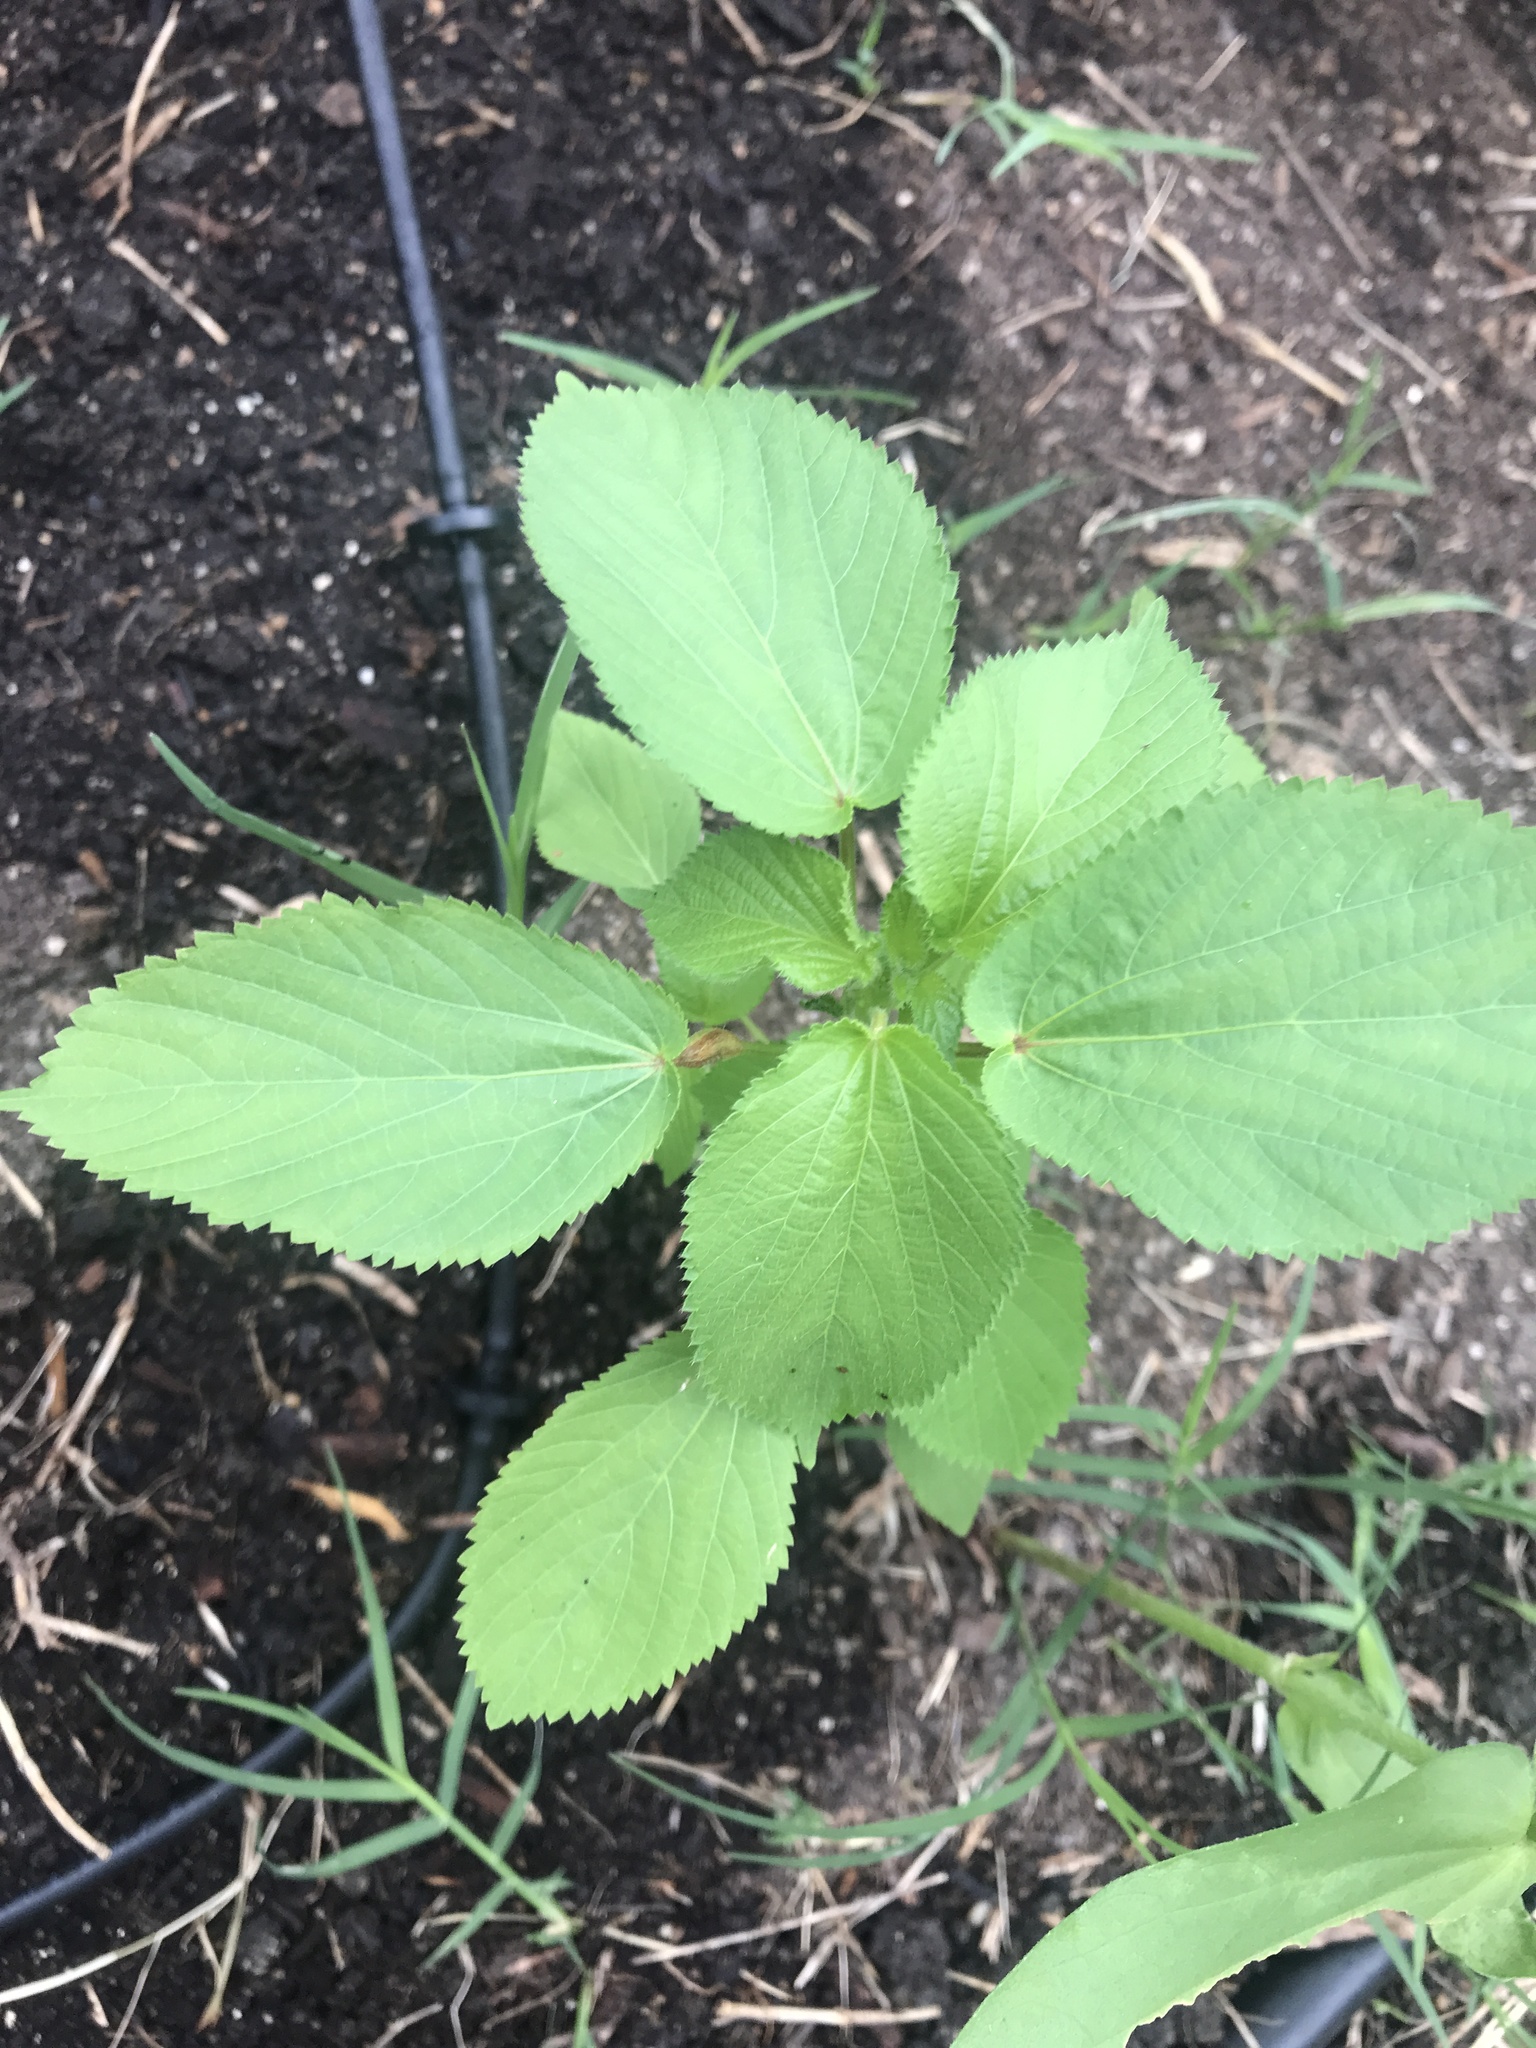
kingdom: Plantae
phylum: Tracheophyta
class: Magnoliopsida
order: Malpighiales
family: Euphorbiaceae
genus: Acalypha
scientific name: Acalypha ostryifolia
